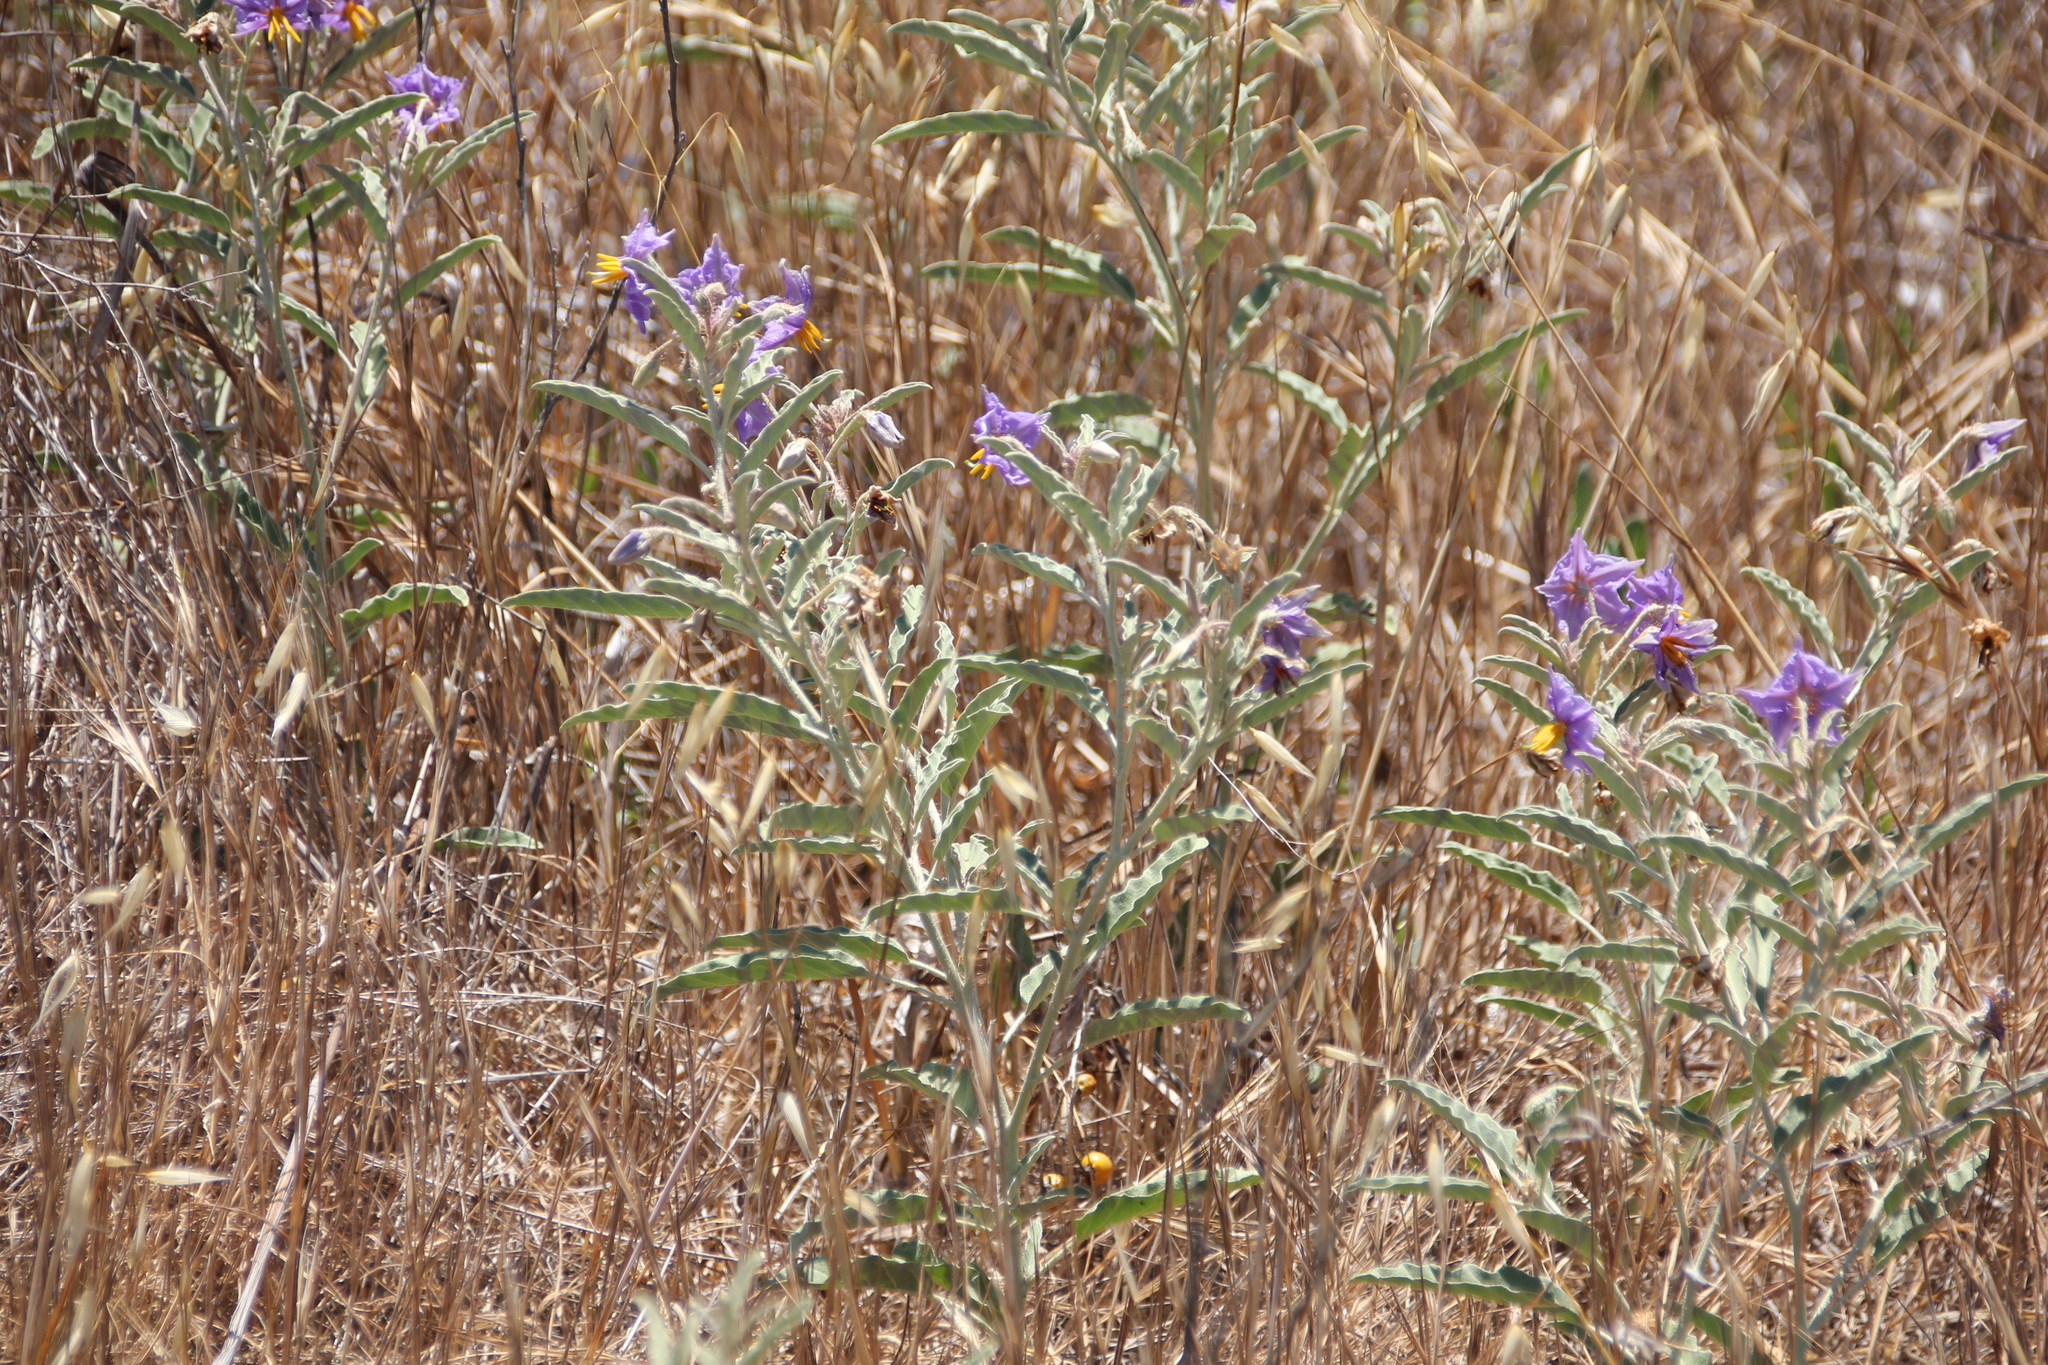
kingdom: Plantae
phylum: Tracheophyta
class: Magnoliopsida
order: Solanales
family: Solanaceae
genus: Solanum
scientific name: Solanum elaeagnifolium
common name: Silverleaf nightshade
